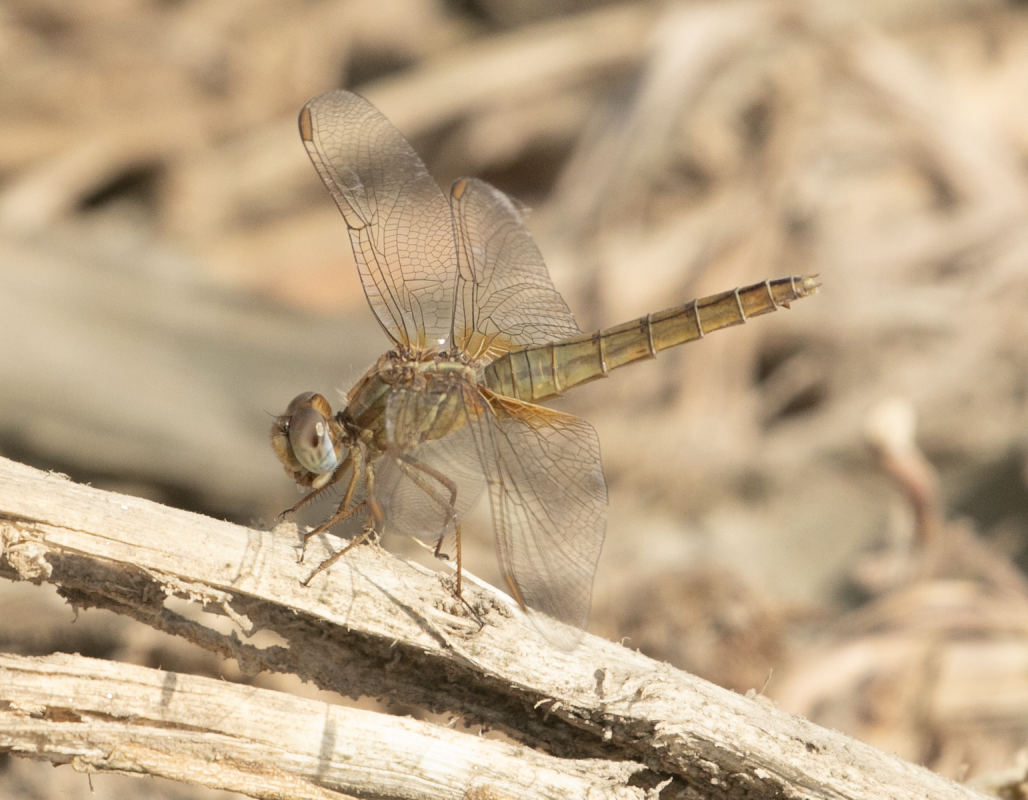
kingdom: Animalia
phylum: Arthropoda
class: Insecta
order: Odonata
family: Libellulidae
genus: Crocothemis
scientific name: Crocothemis erythraea
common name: Scarlet dragonfly
